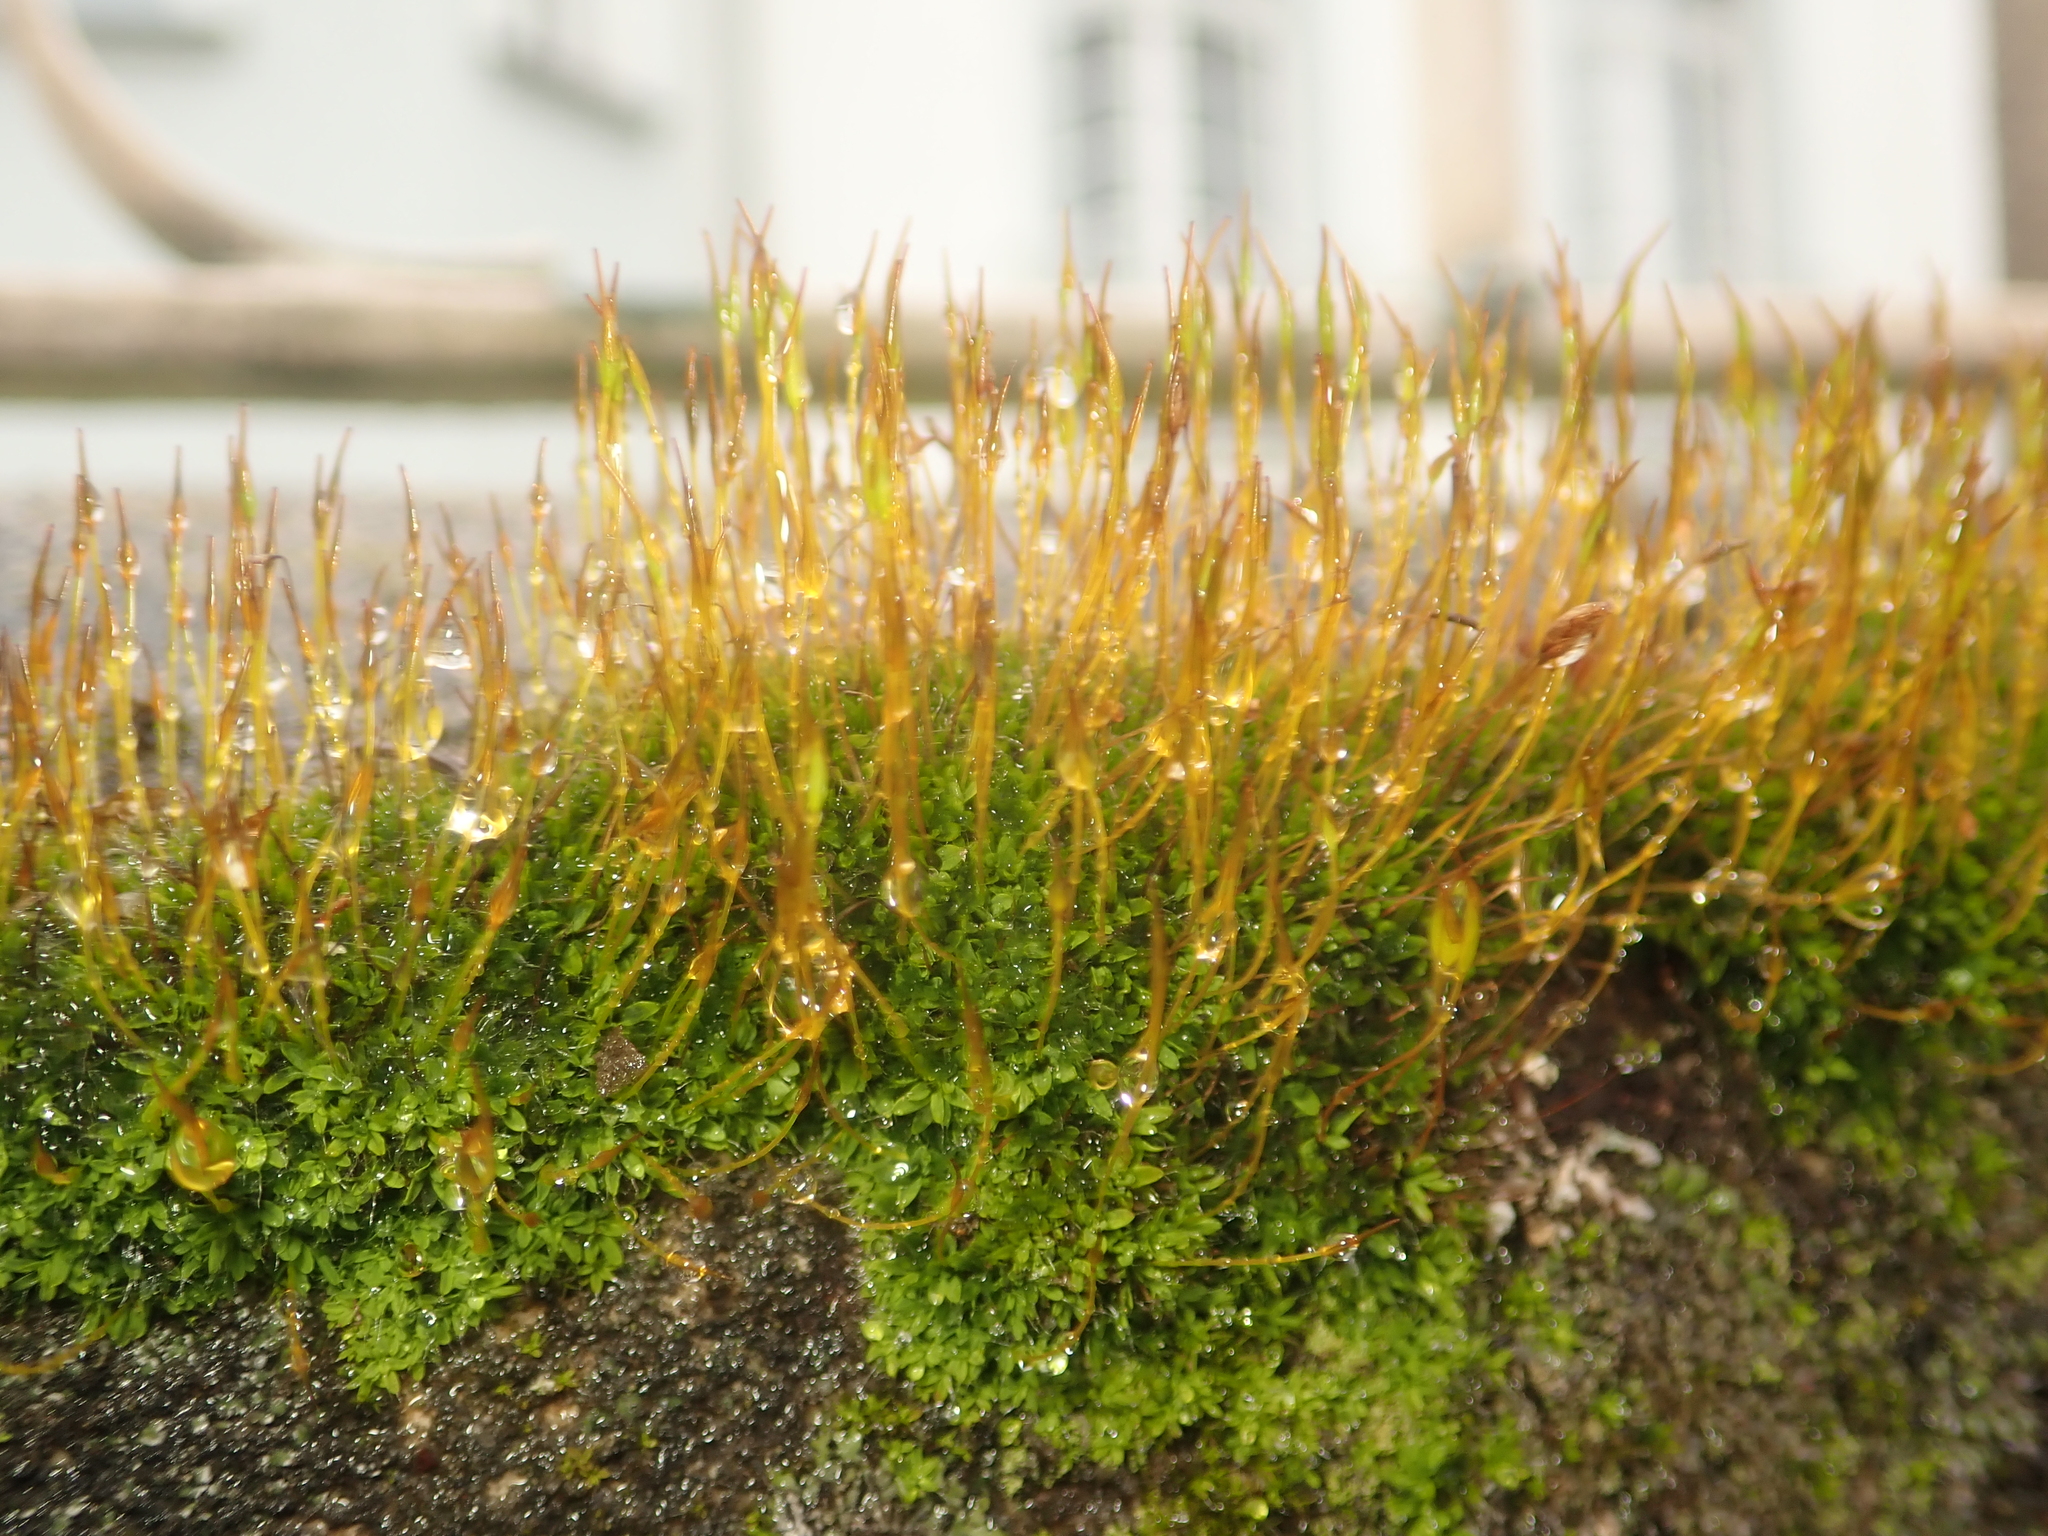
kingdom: Plantae
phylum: Bryophyta
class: Bryopsida
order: Pottiales
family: Pottiaceae
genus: Tortula
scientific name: Tortula muralis
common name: Wall screw-moss
